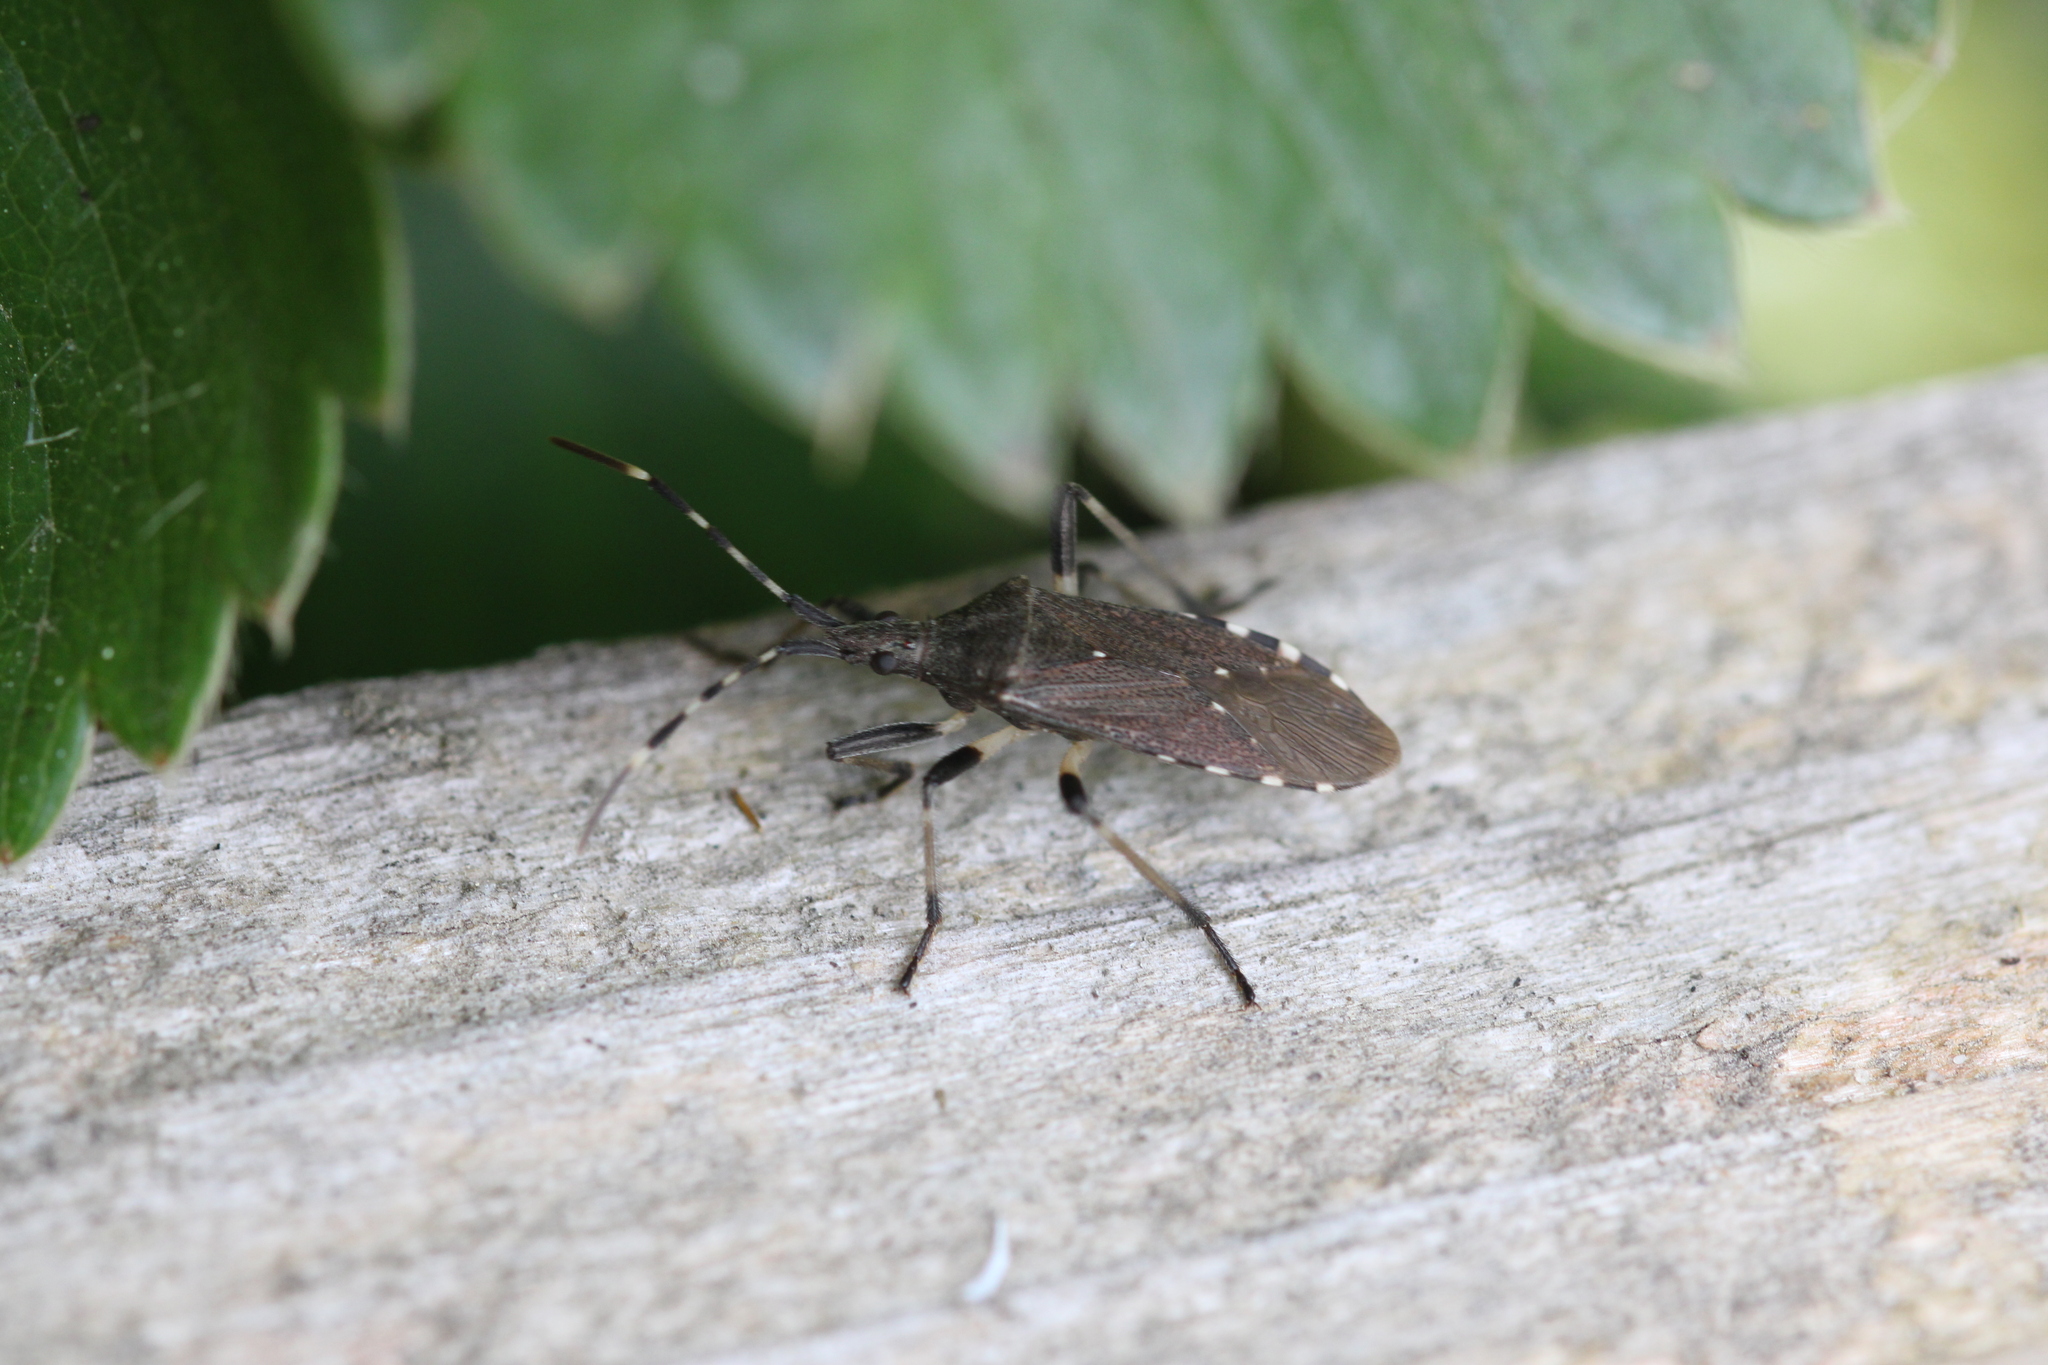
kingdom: Animalia
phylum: Arthropoda
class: Insecta
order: Hemiptera
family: Stenocephalidae
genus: Dicranocephalus
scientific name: Dicranocephalus agilis
